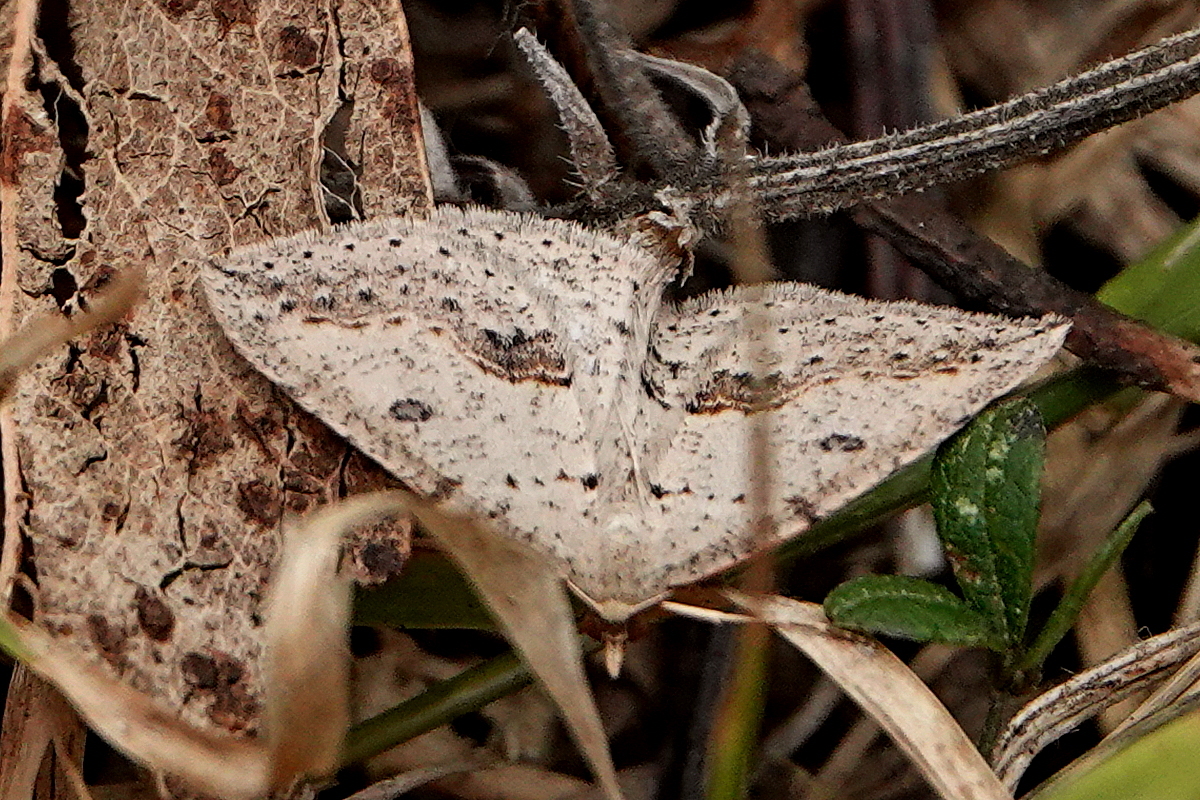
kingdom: Animalia
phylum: Arthropoda
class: Insecta
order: Lepidoptera
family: Geometridae
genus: Taxeotis
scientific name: Taxeotis stereospila
